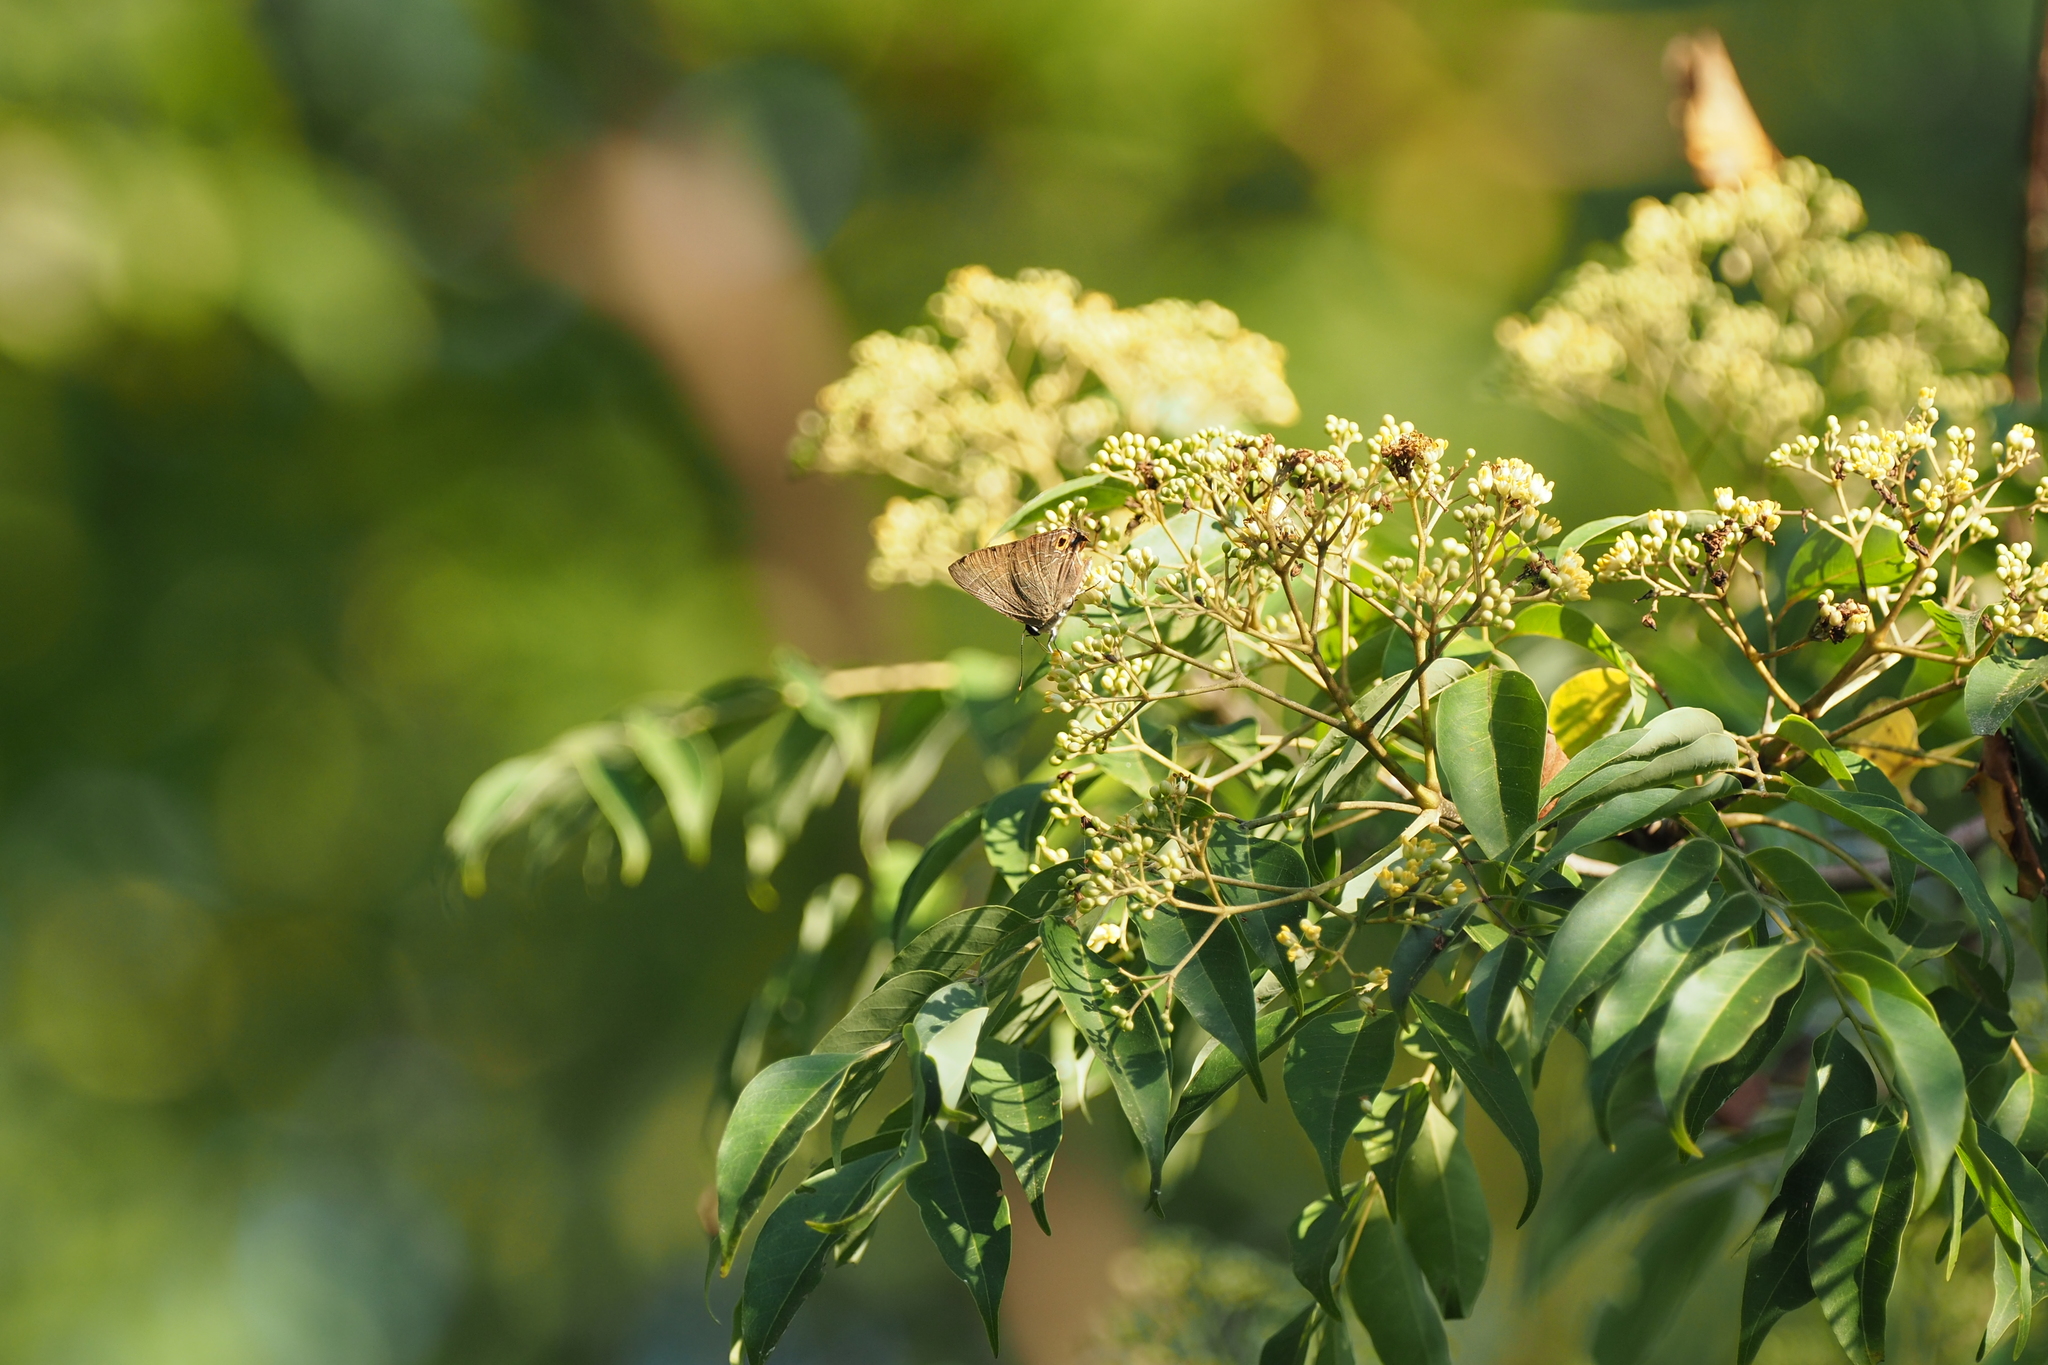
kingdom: Animalia
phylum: Arthropoda
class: Insecta
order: Lepidoptera
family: Lycaenidae
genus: Deudorix
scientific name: Deudorix epijarbas
